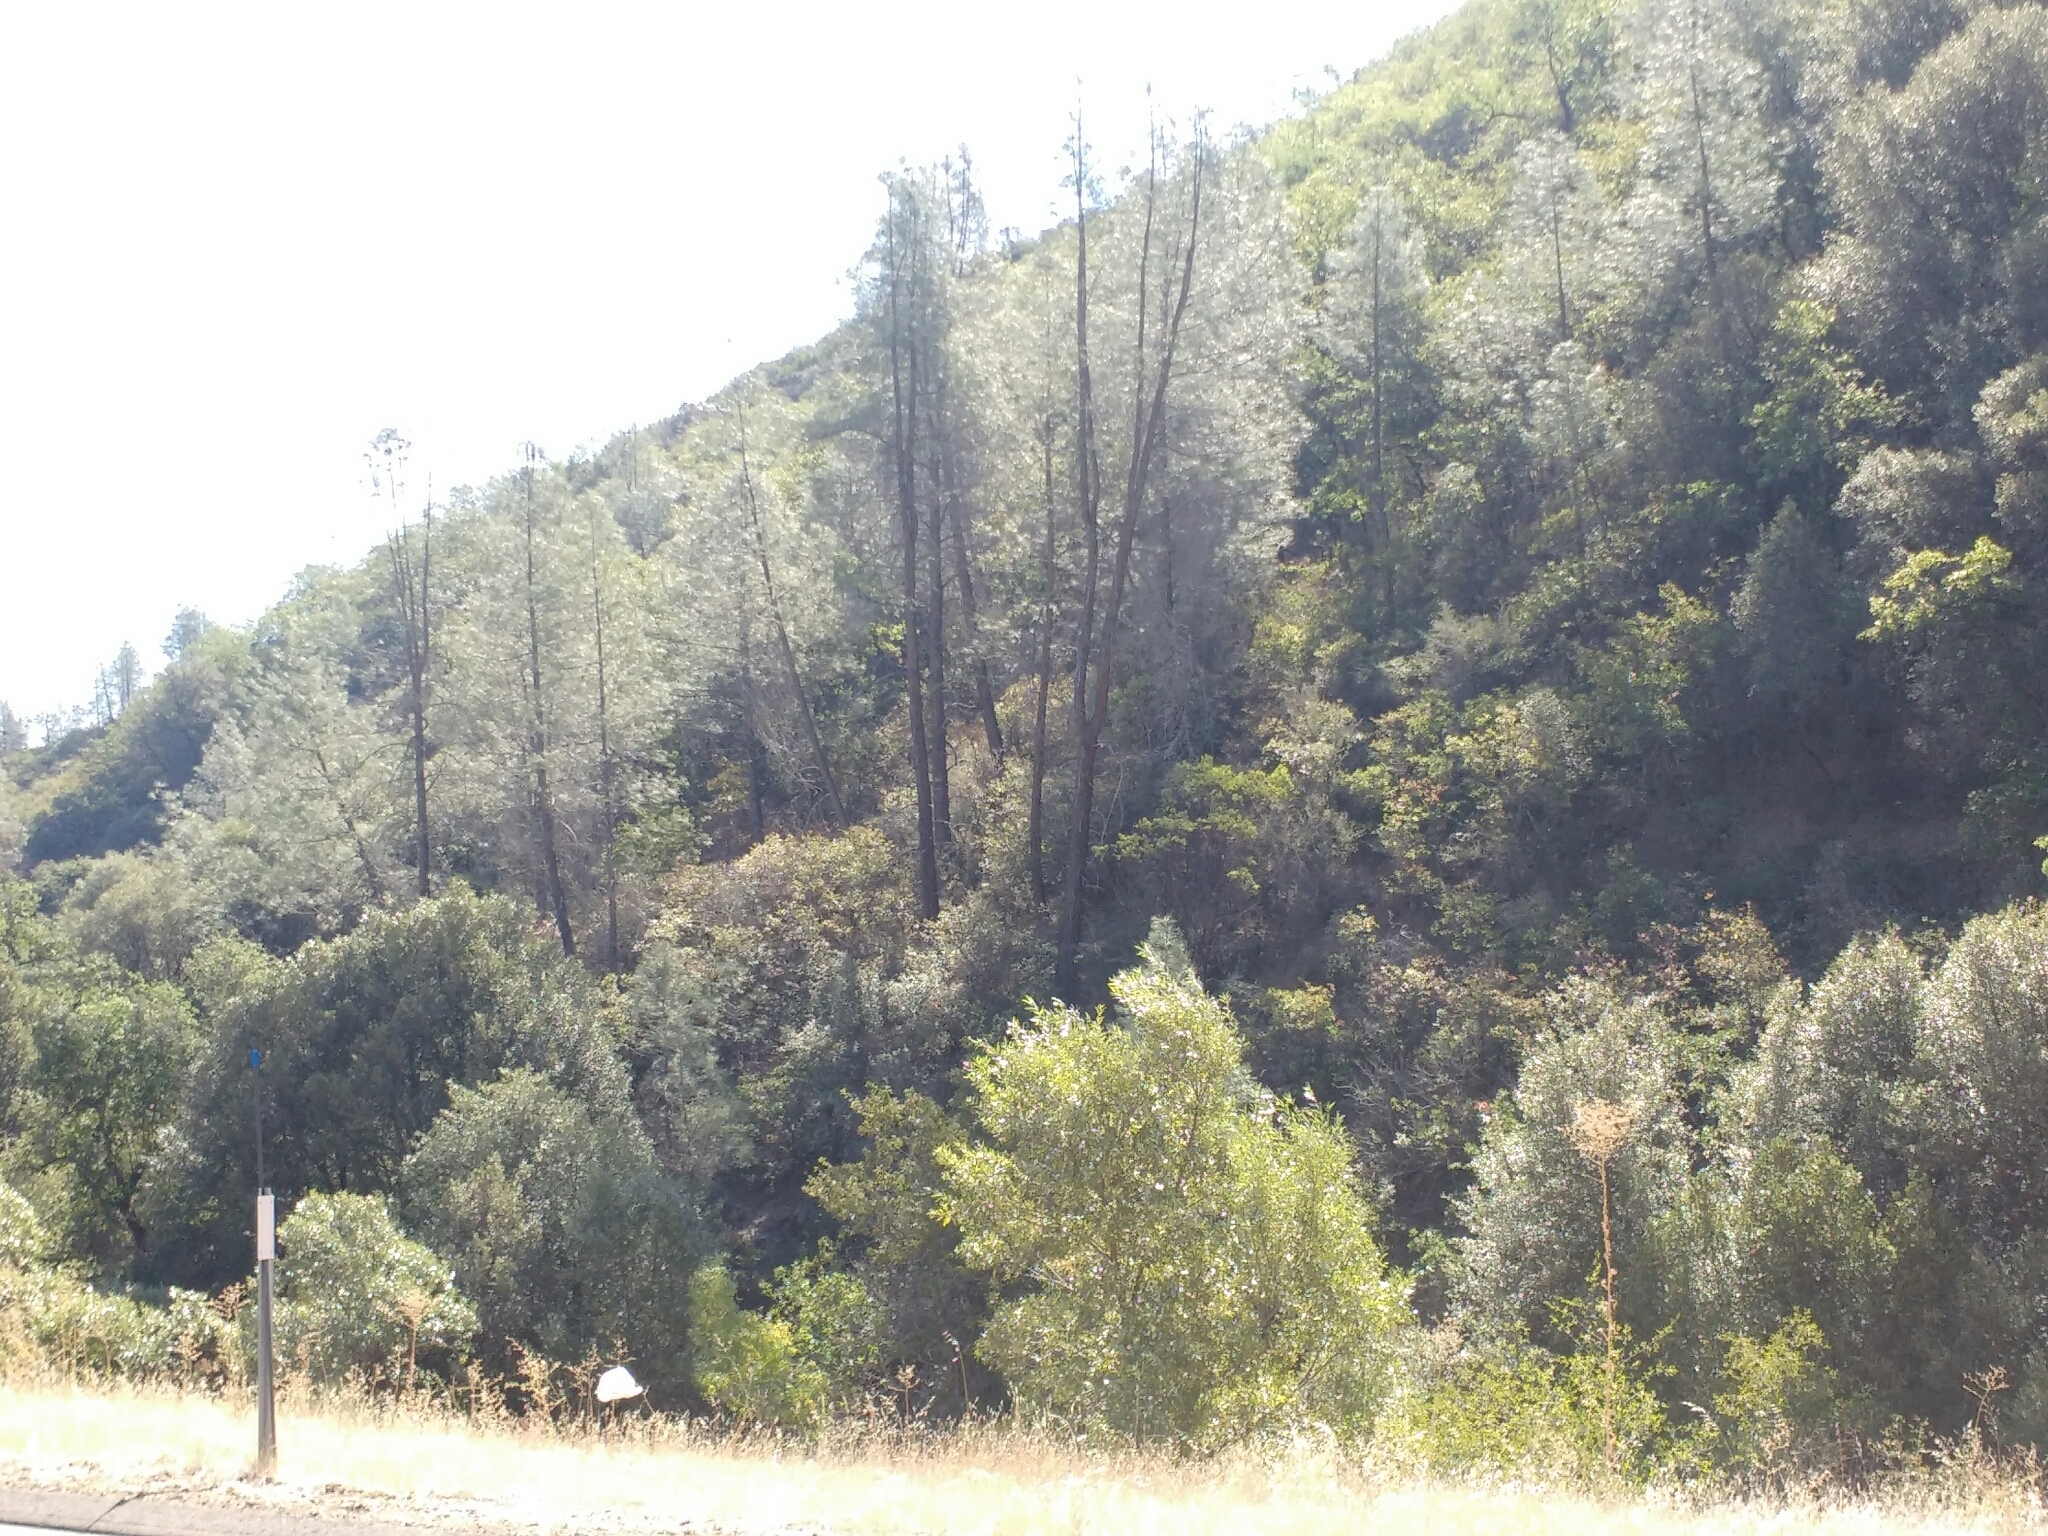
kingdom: Plantae
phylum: Tracheophyta
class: Pinopsida
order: Pinales
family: Pinaceae
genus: Pinus
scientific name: Pinus sabiniana
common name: Bull pine
